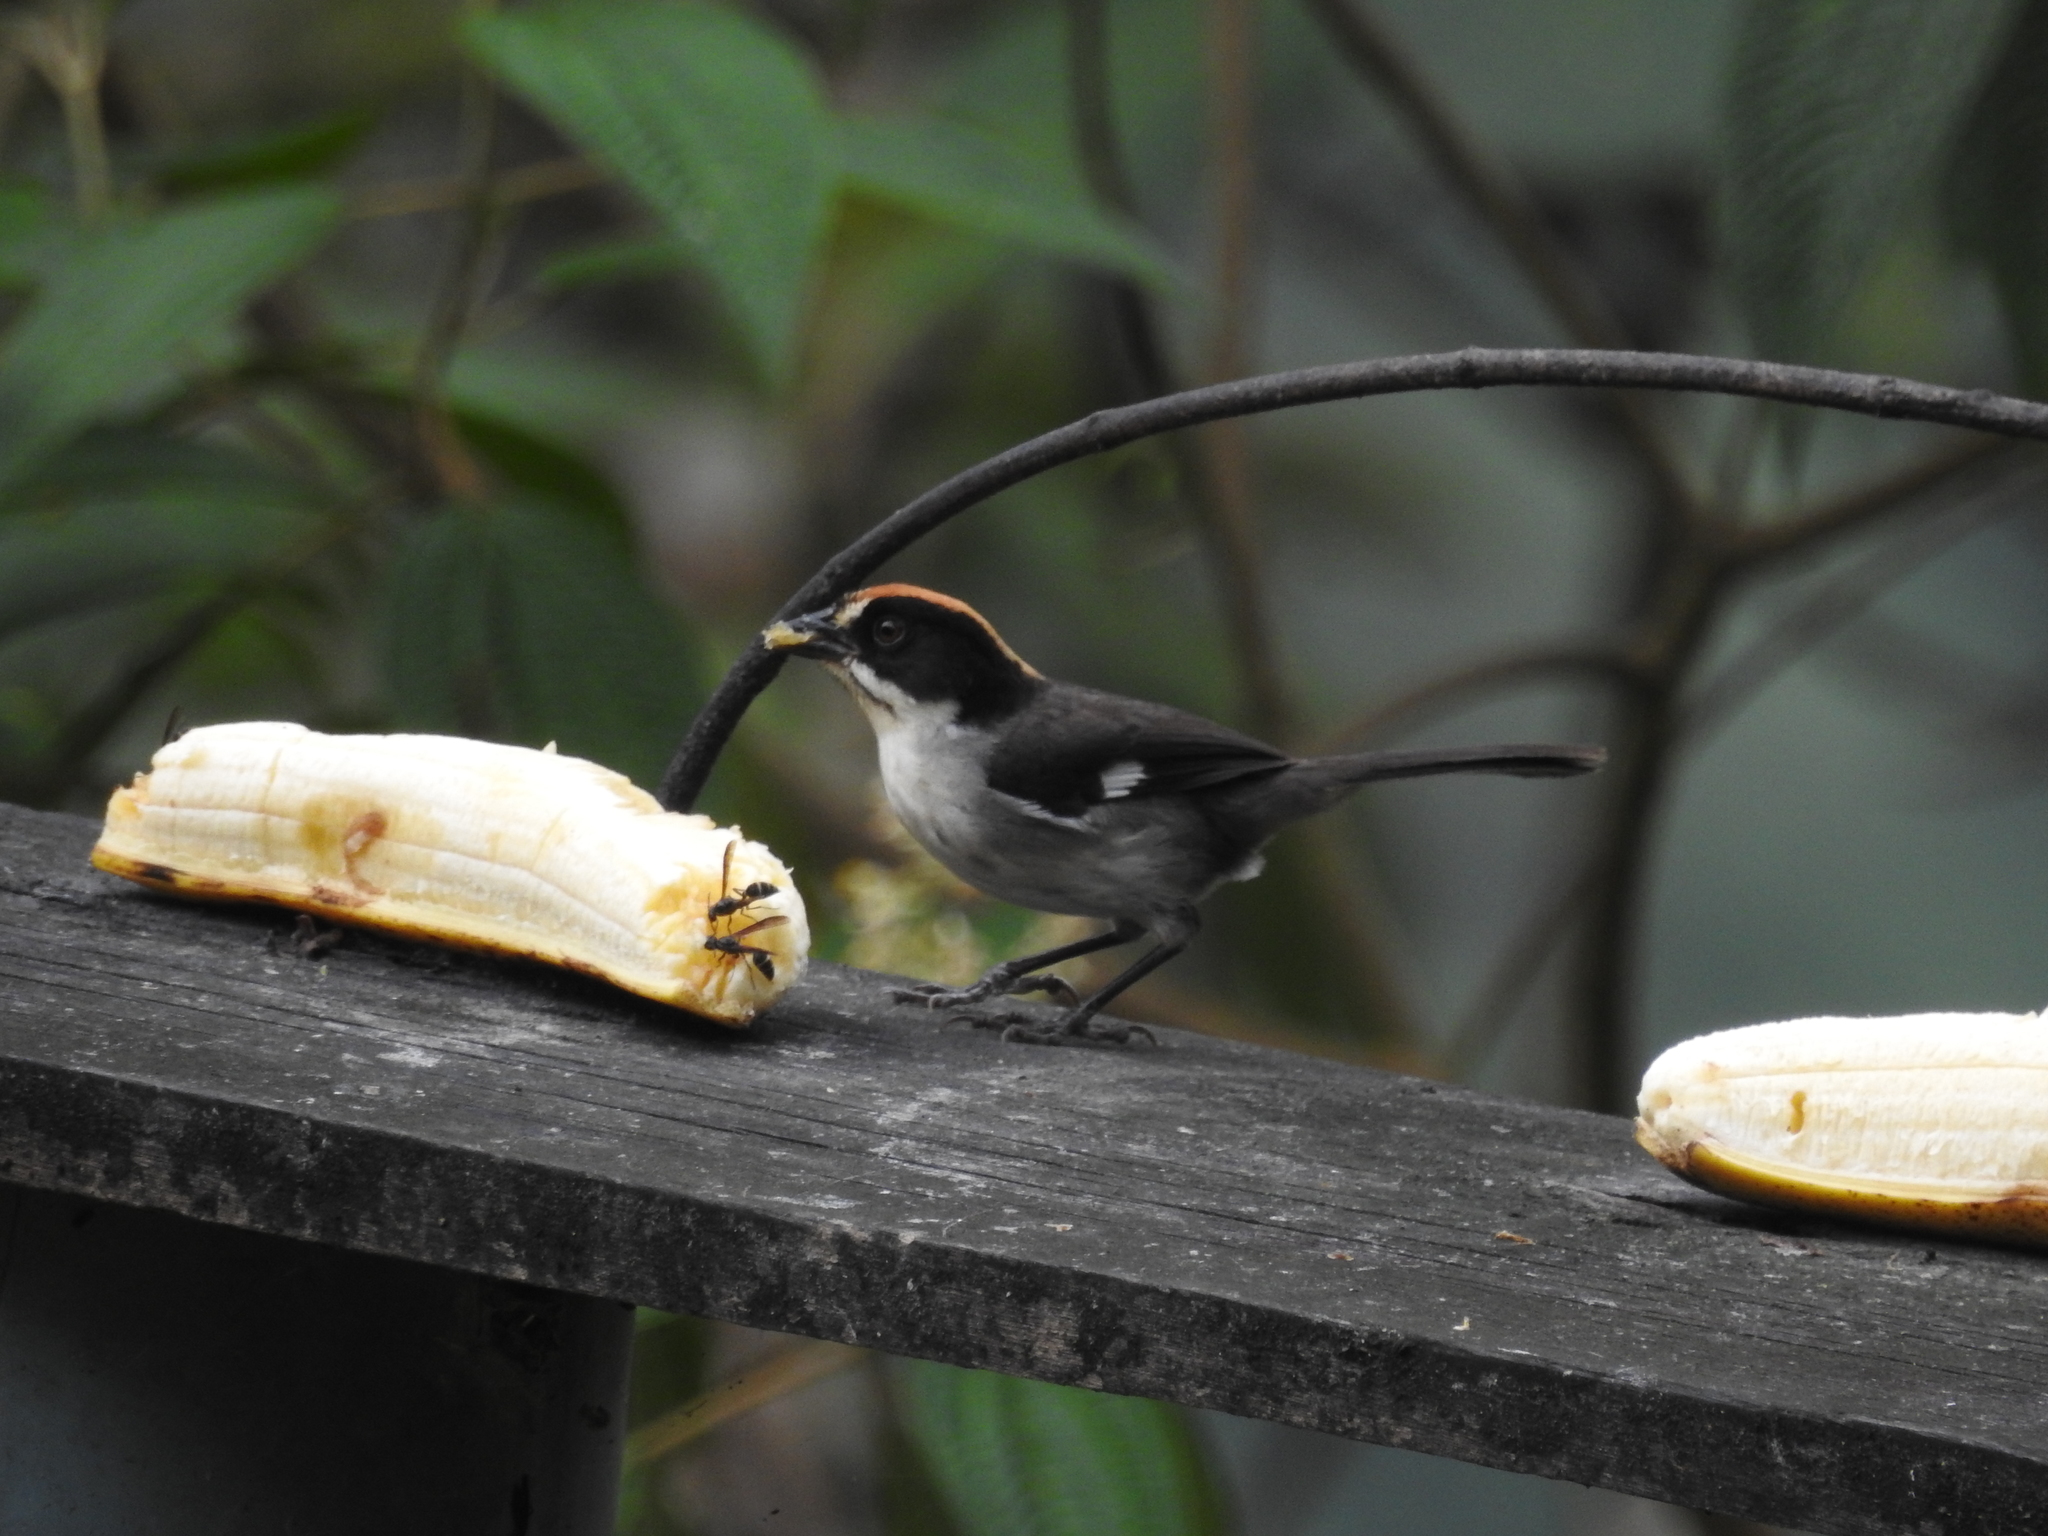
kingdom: Animalia
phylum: Chordata
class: Aves
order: Passeriformes
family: Passerellidae
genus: Atlapetes
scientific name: Atlapetes leucopterus
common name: White-winged brushfinch
